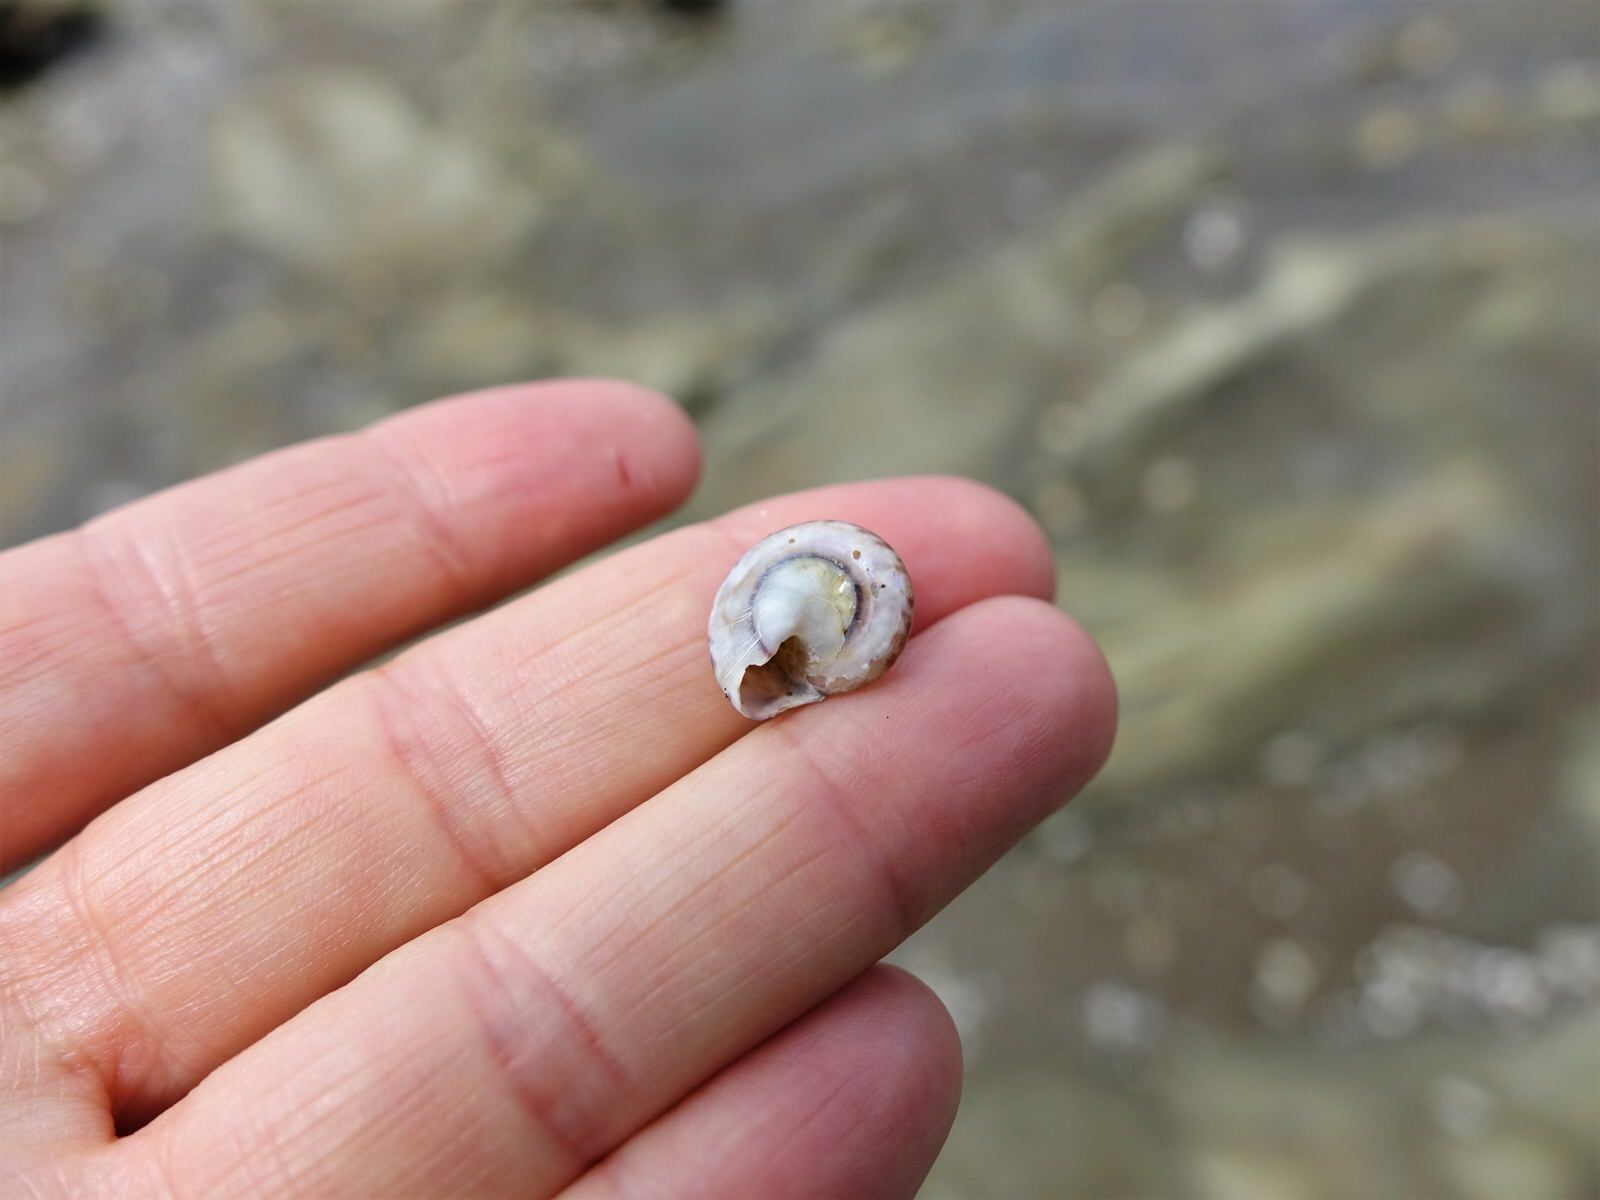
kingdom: Animalia
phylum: Mollusca
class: Gastropoda
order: Trochida
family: Trochidae
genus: Zethalia
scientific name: Zethalia zelandica
